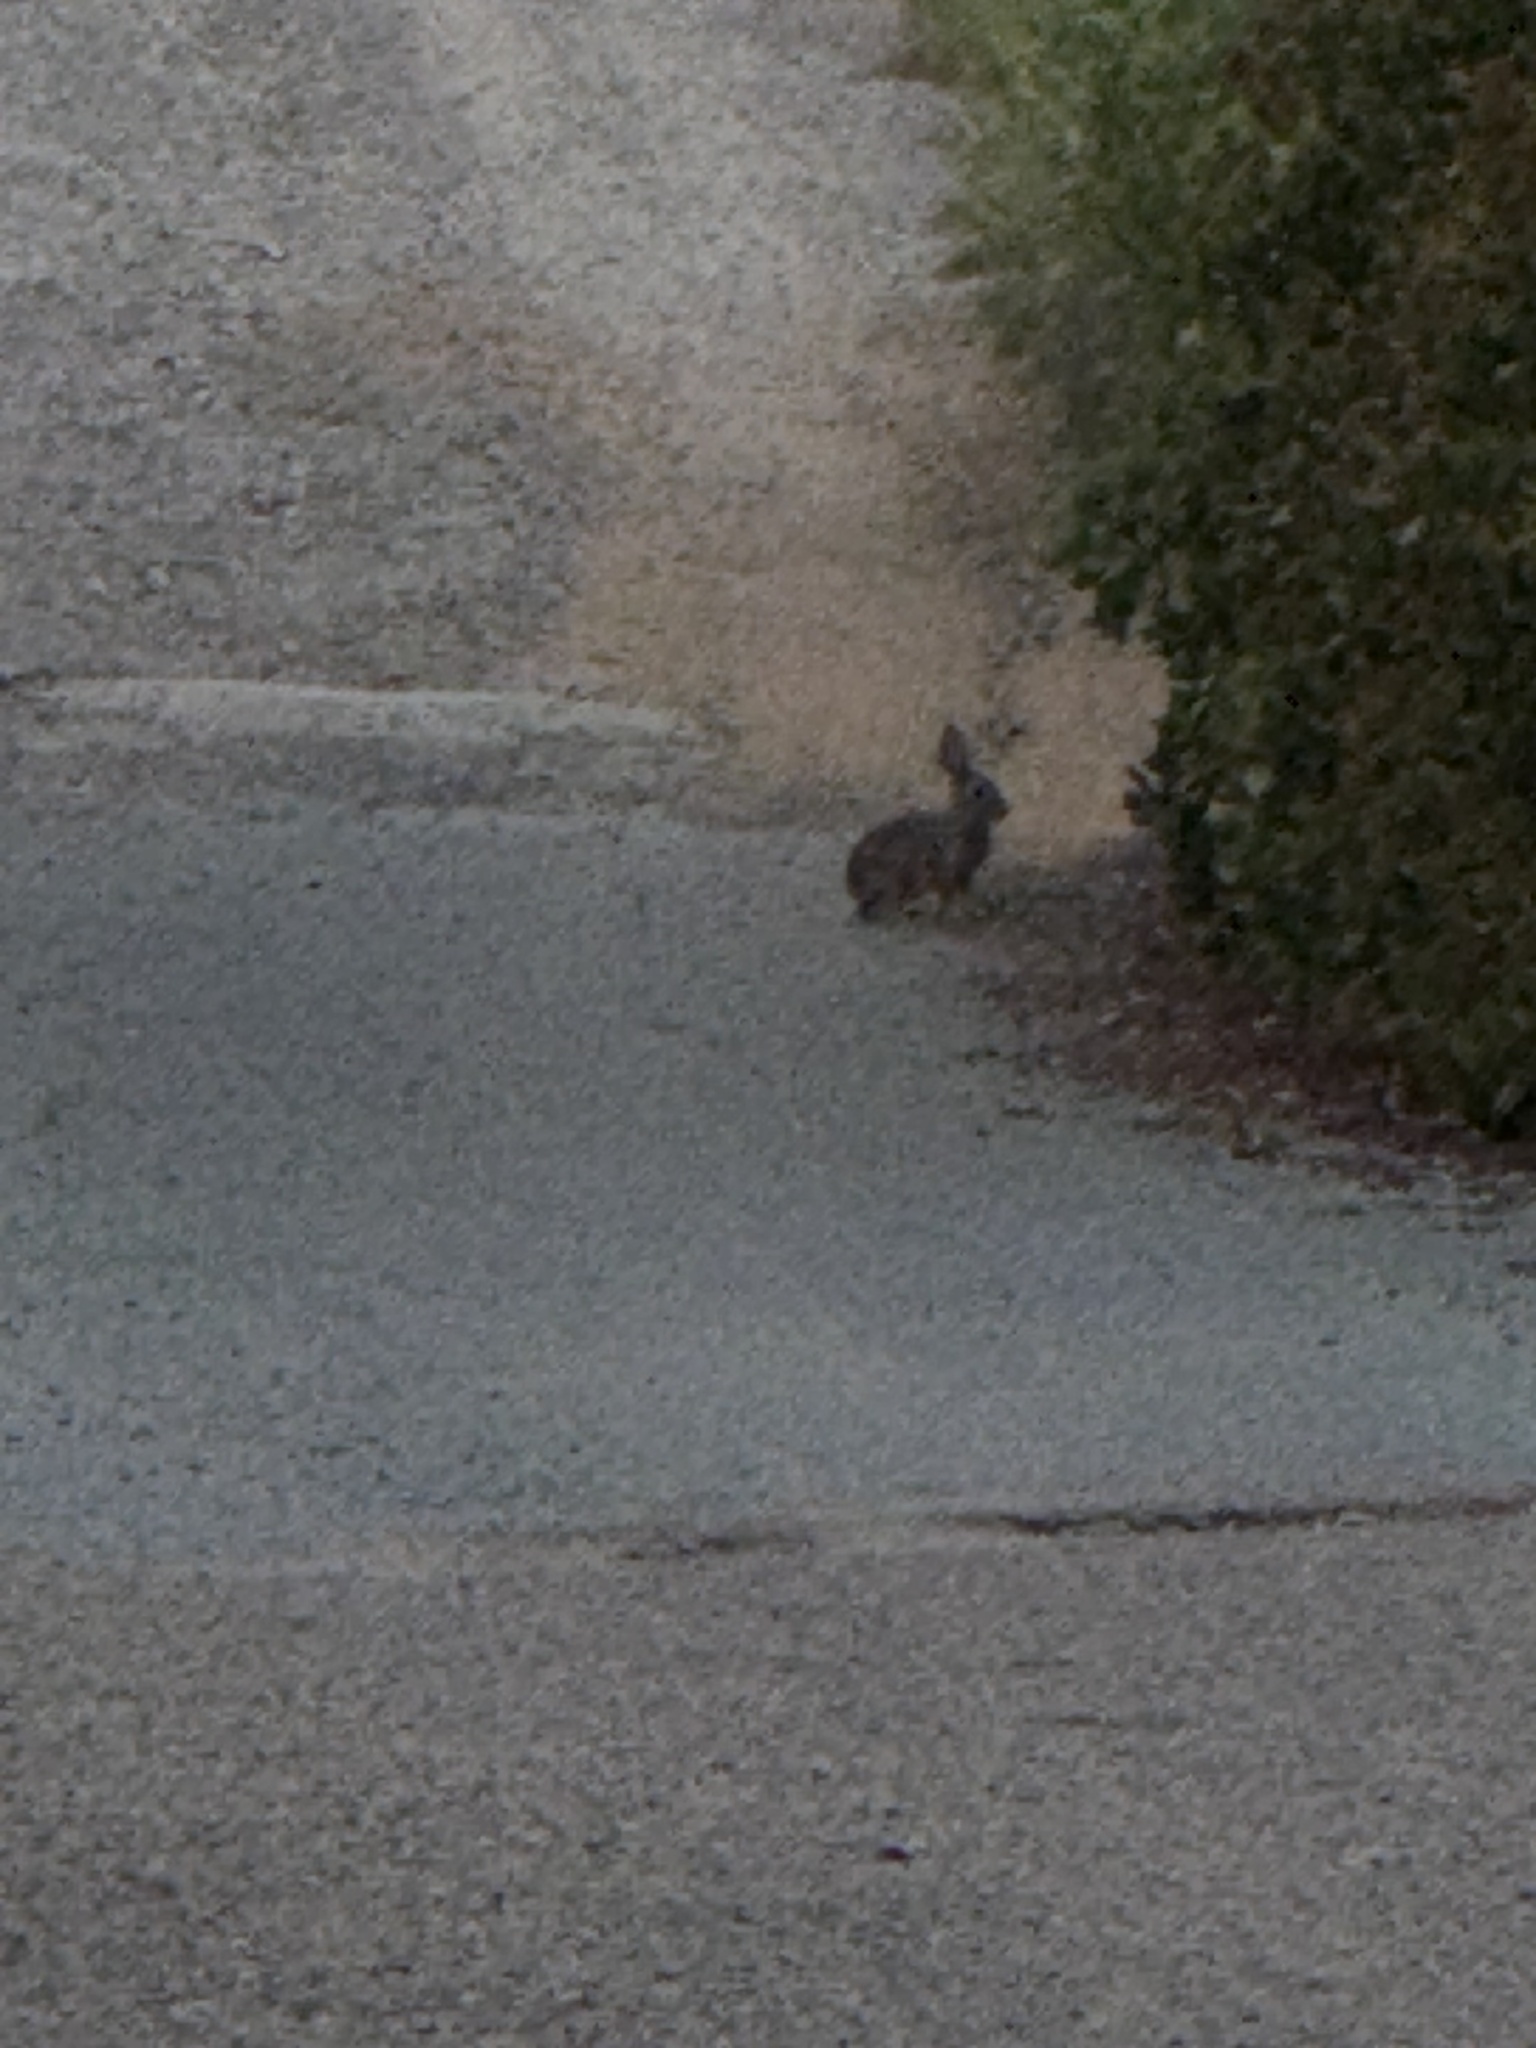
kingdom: Animalia
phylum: Chordata
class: Mammalia
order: Lagomorpha
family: Leporidae
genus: Sylvilagus
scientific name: Sylvilagus audubonii
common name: Desert cottontail
